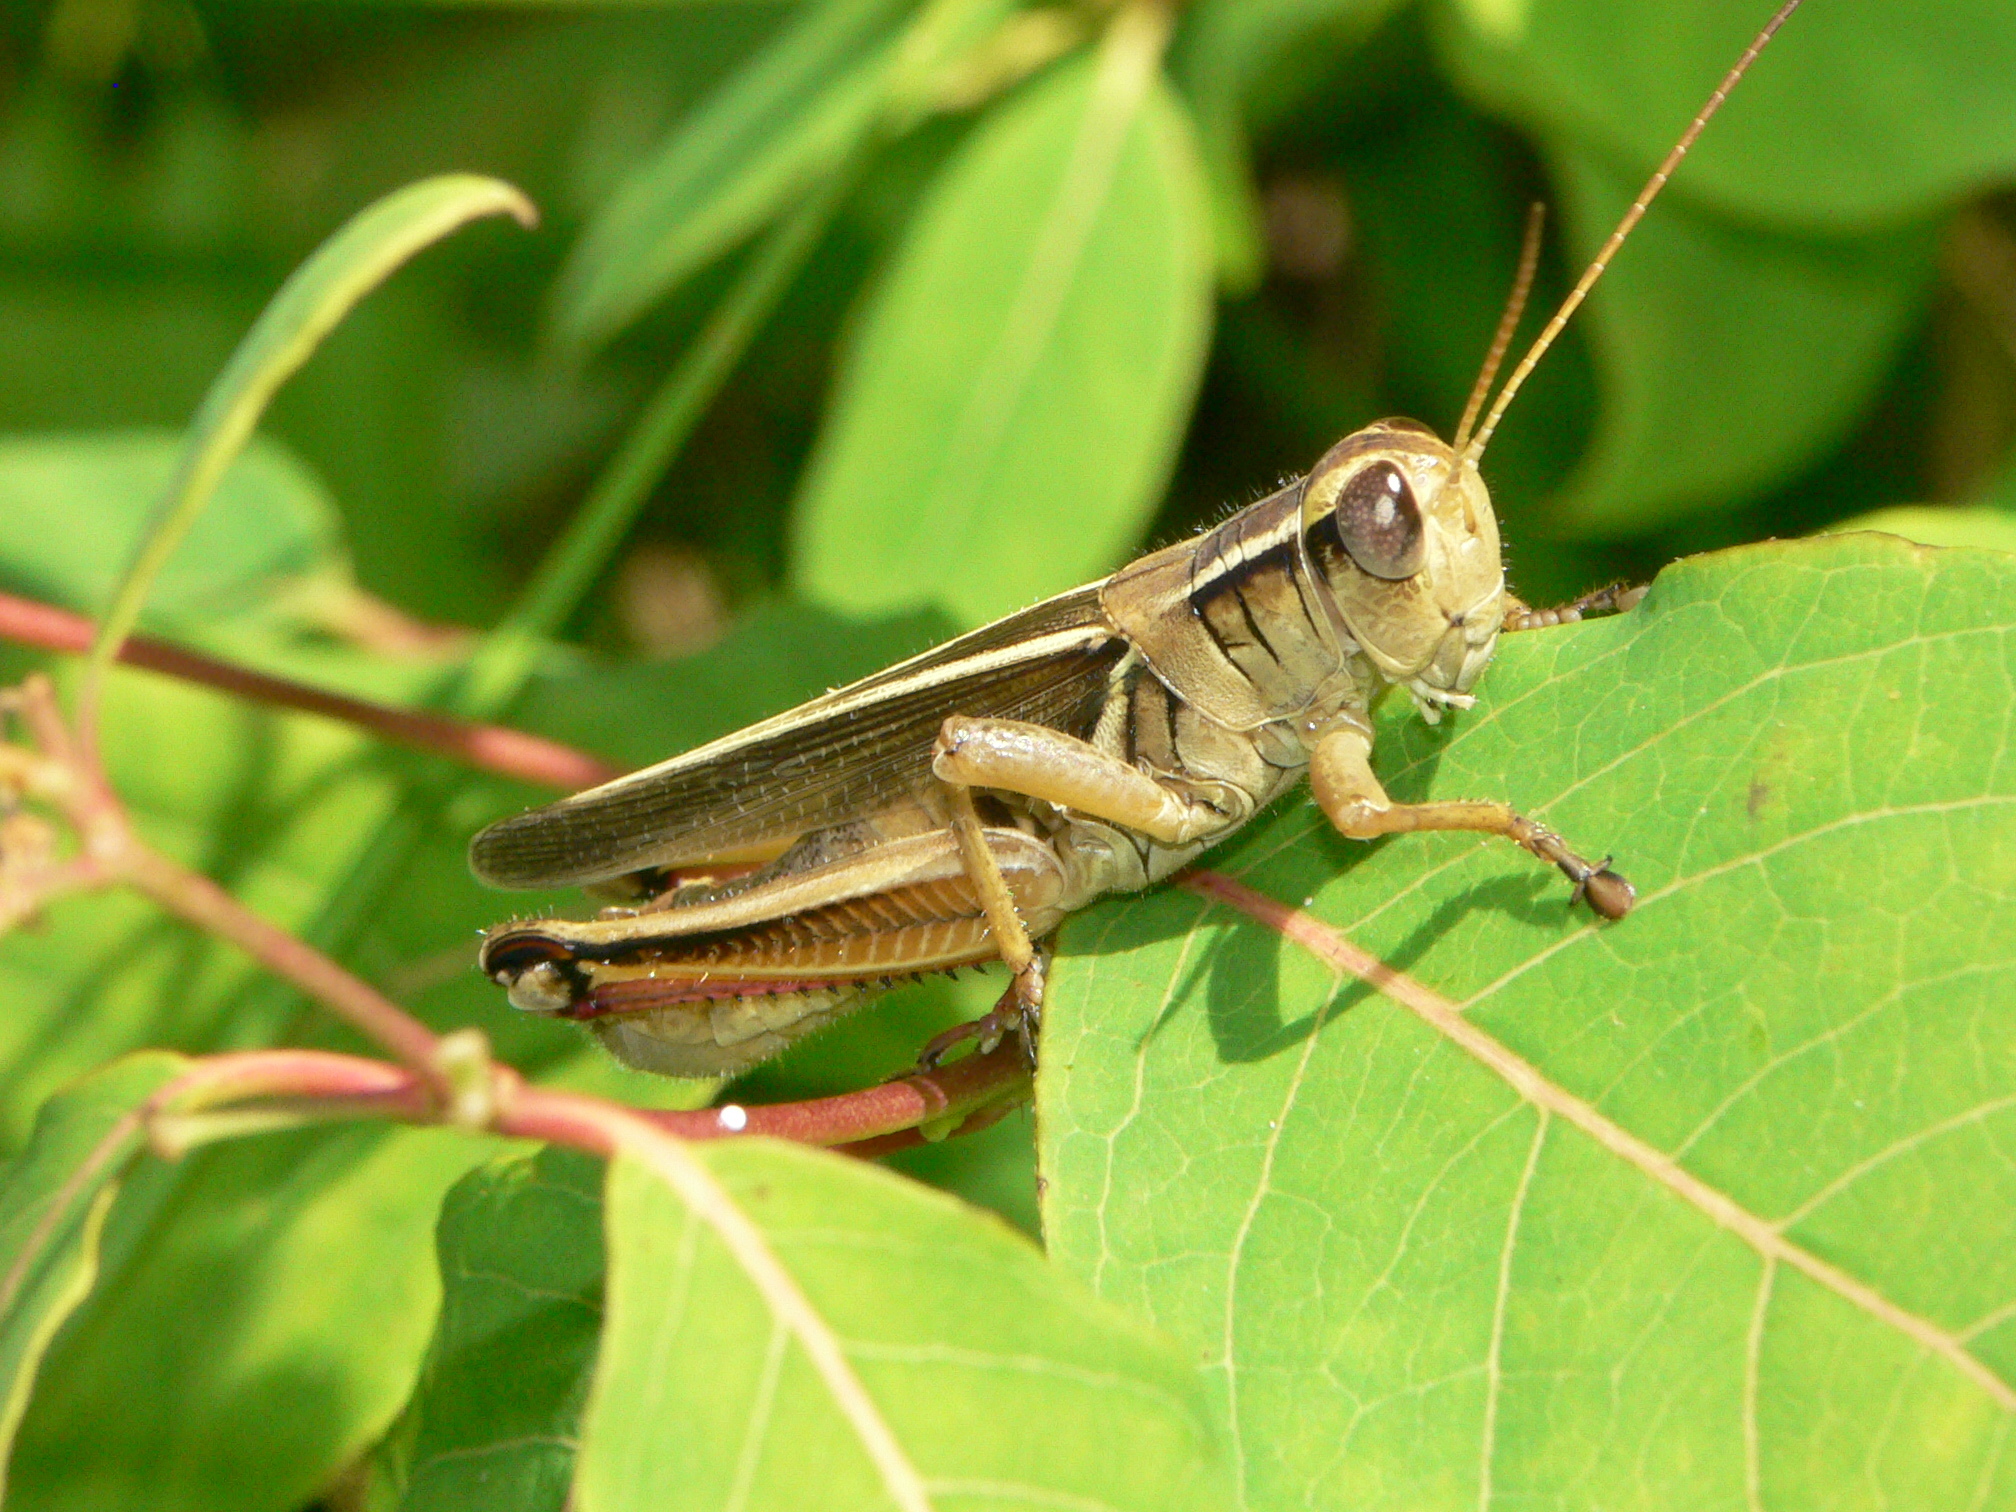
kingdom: Animalia
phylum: Arthropoda
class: Insecta
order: Orthoptera
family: Acrididae
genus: Melanoplus
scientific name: Melanoplus bivittatus
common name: Two-striped grasshopper
